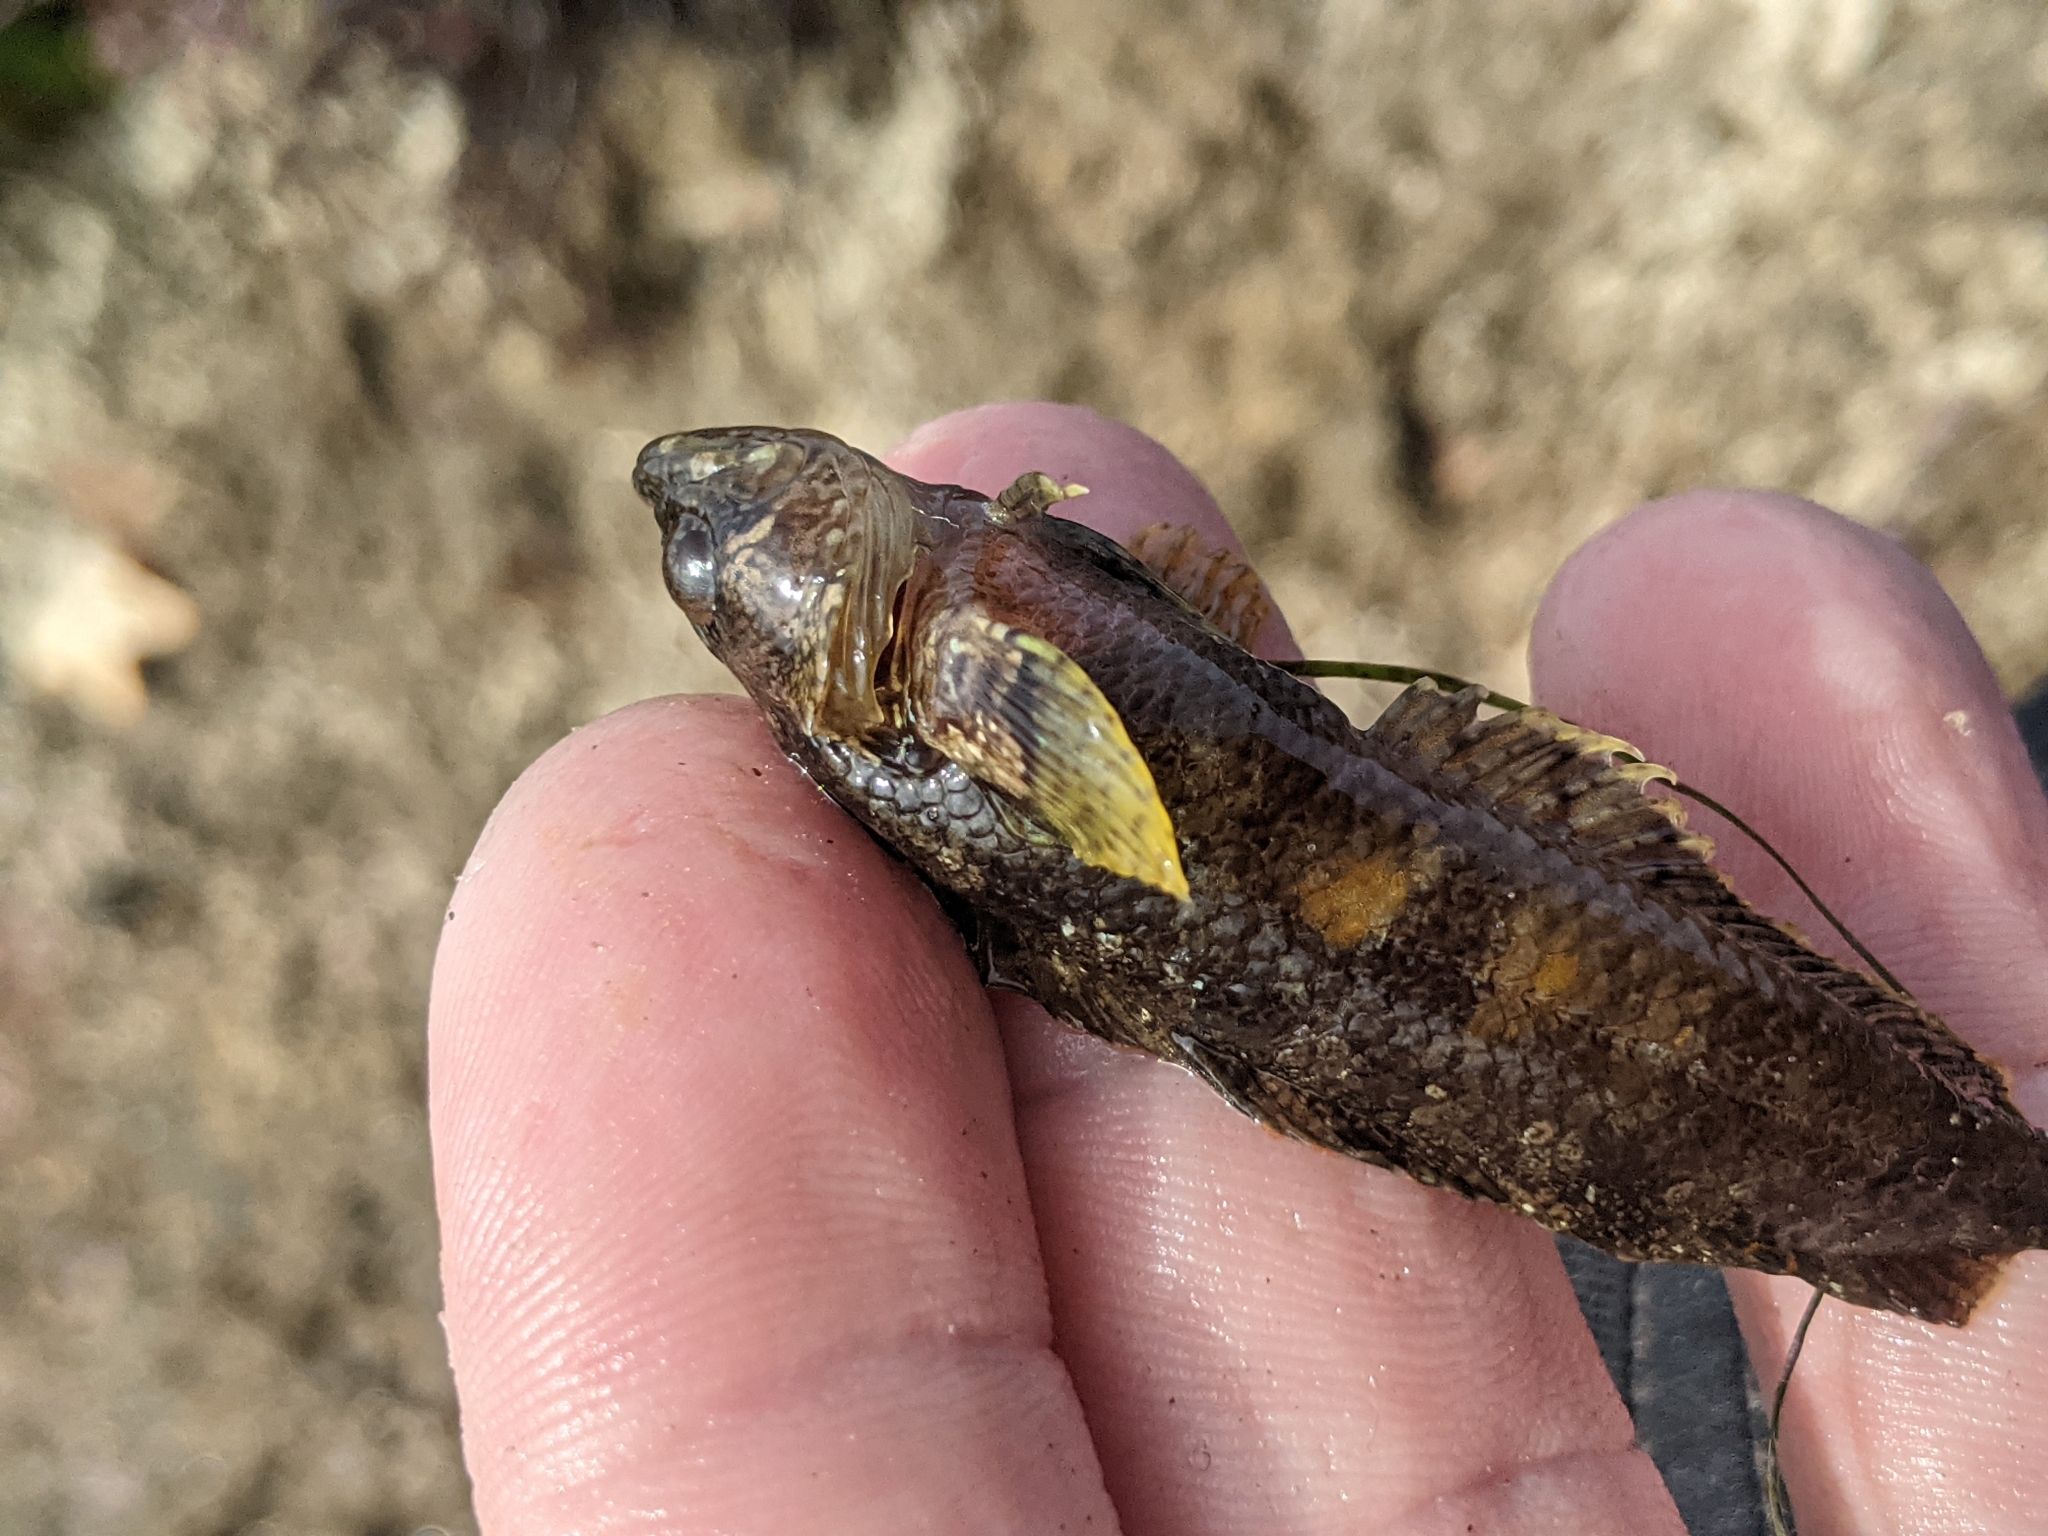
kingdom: Animalia
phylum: Chordata
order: Perciformes
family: Labrisomidae
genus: Paraclinus
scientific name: Paraclinus integripinnis
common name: Reef finspot
